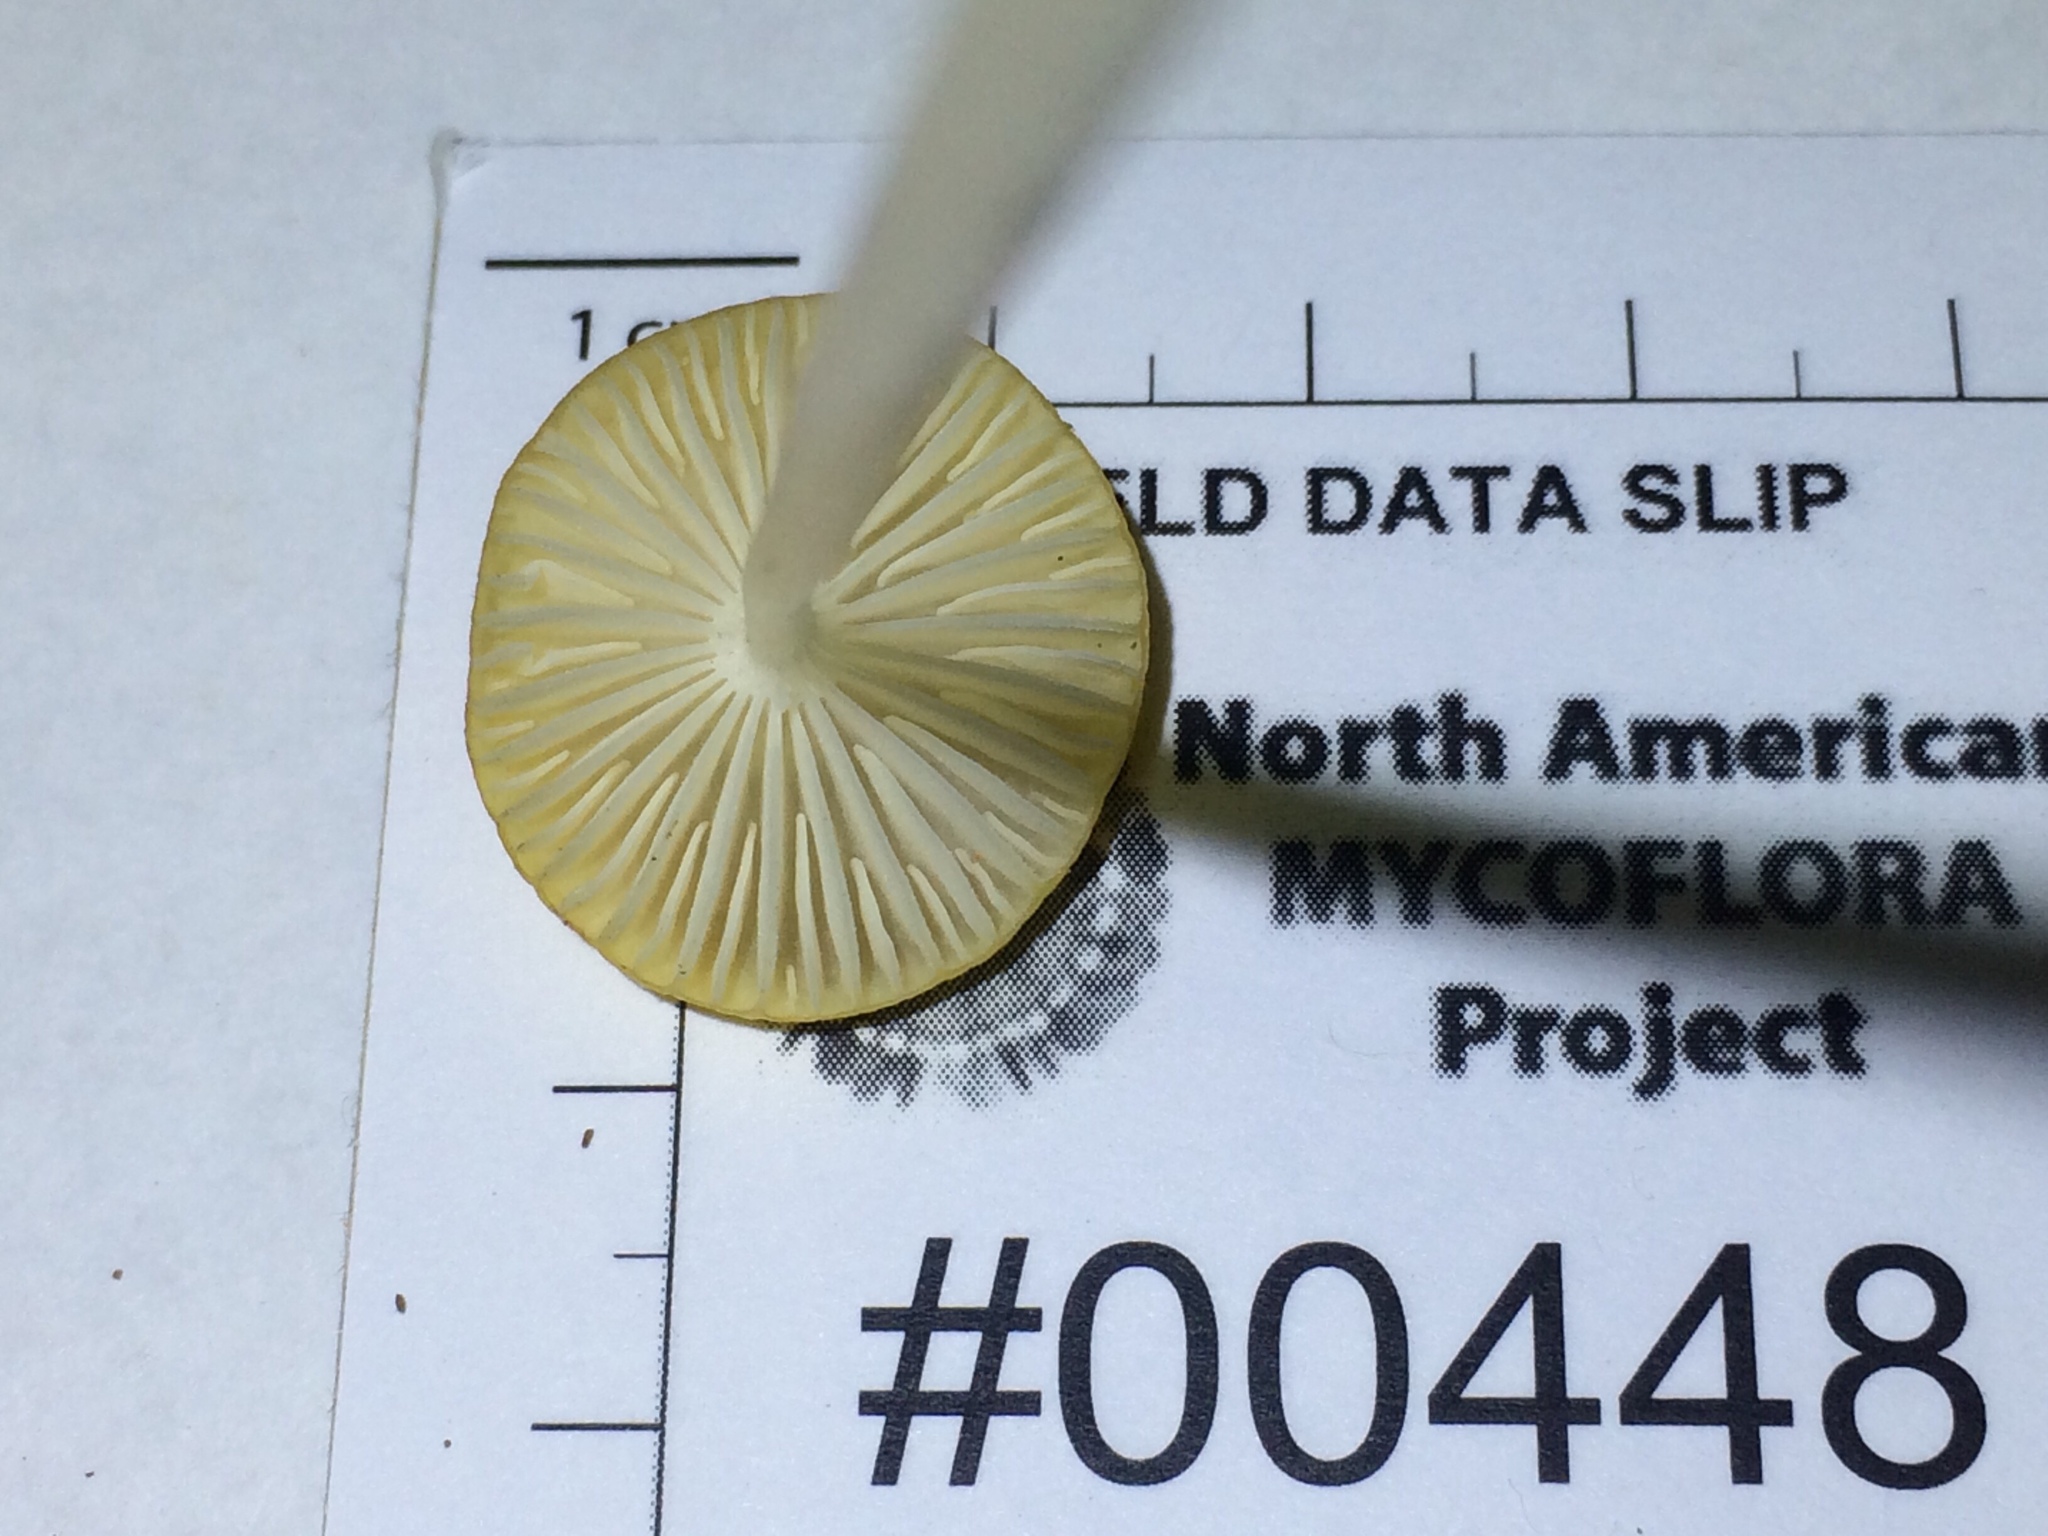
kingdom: Fungi
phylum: Basidiomycota
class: Agaricomycetes
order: Agaricales
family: Physalacriaceae
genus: Hymenopellis
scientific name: Hymenopellis incognita
